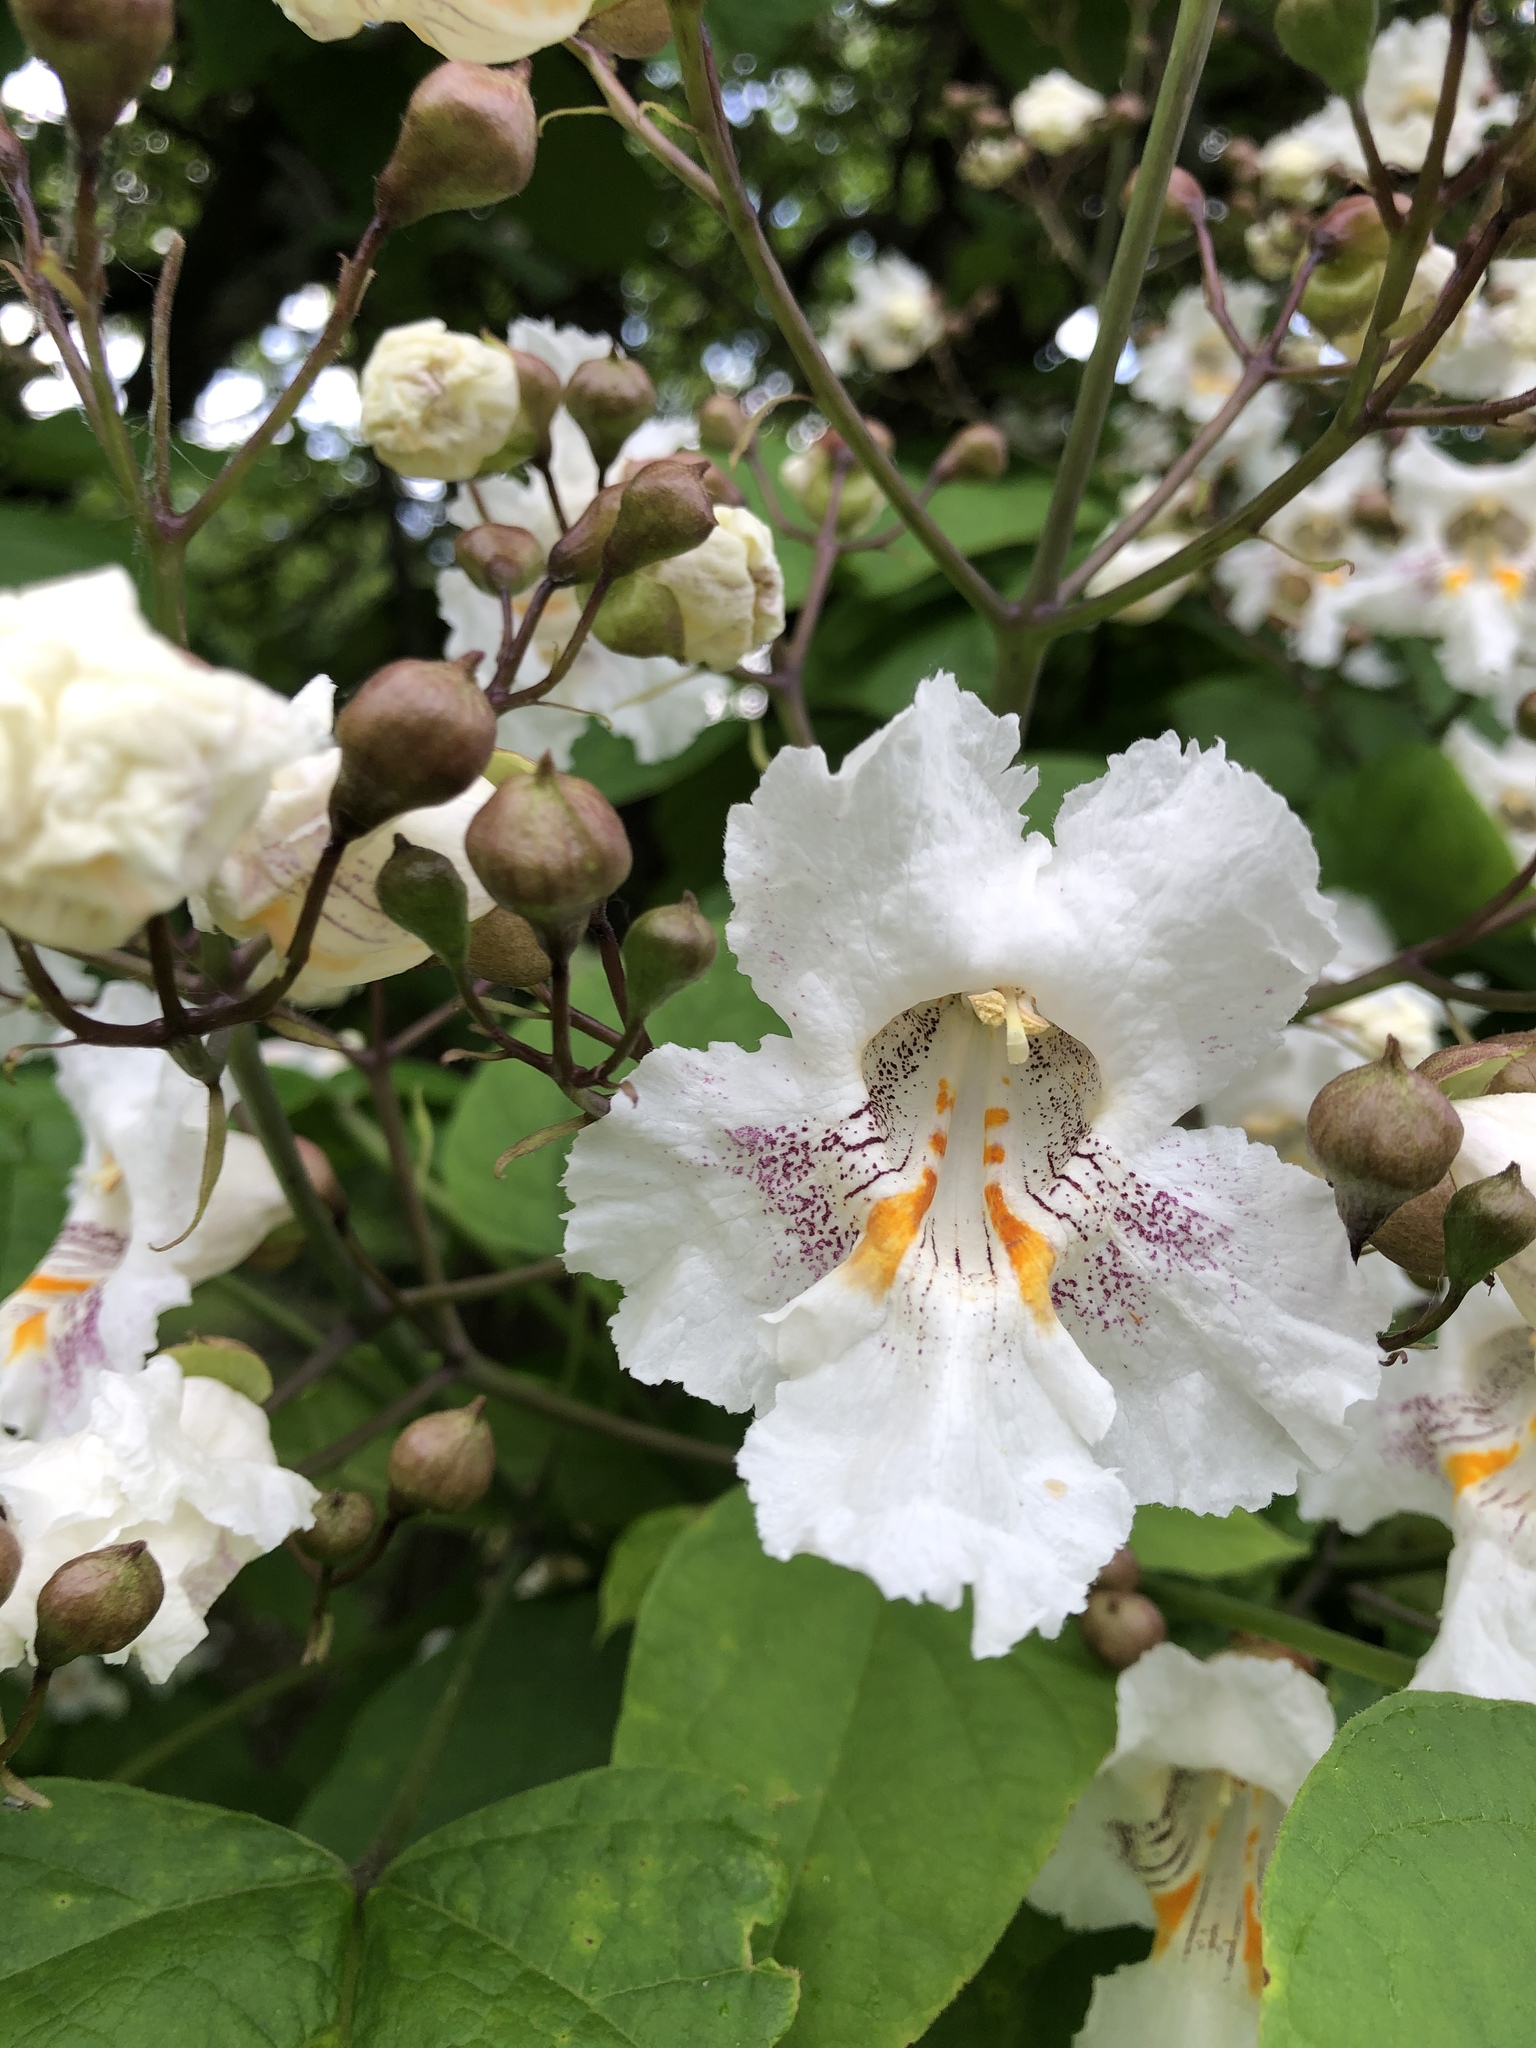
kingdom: Plantae
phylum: Tracheophyta
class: Magnoliopsida
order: Lamiales
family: Bignoniaceae
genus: Catalpa
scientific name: Catalpa speciosa
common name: Northern catalpa
